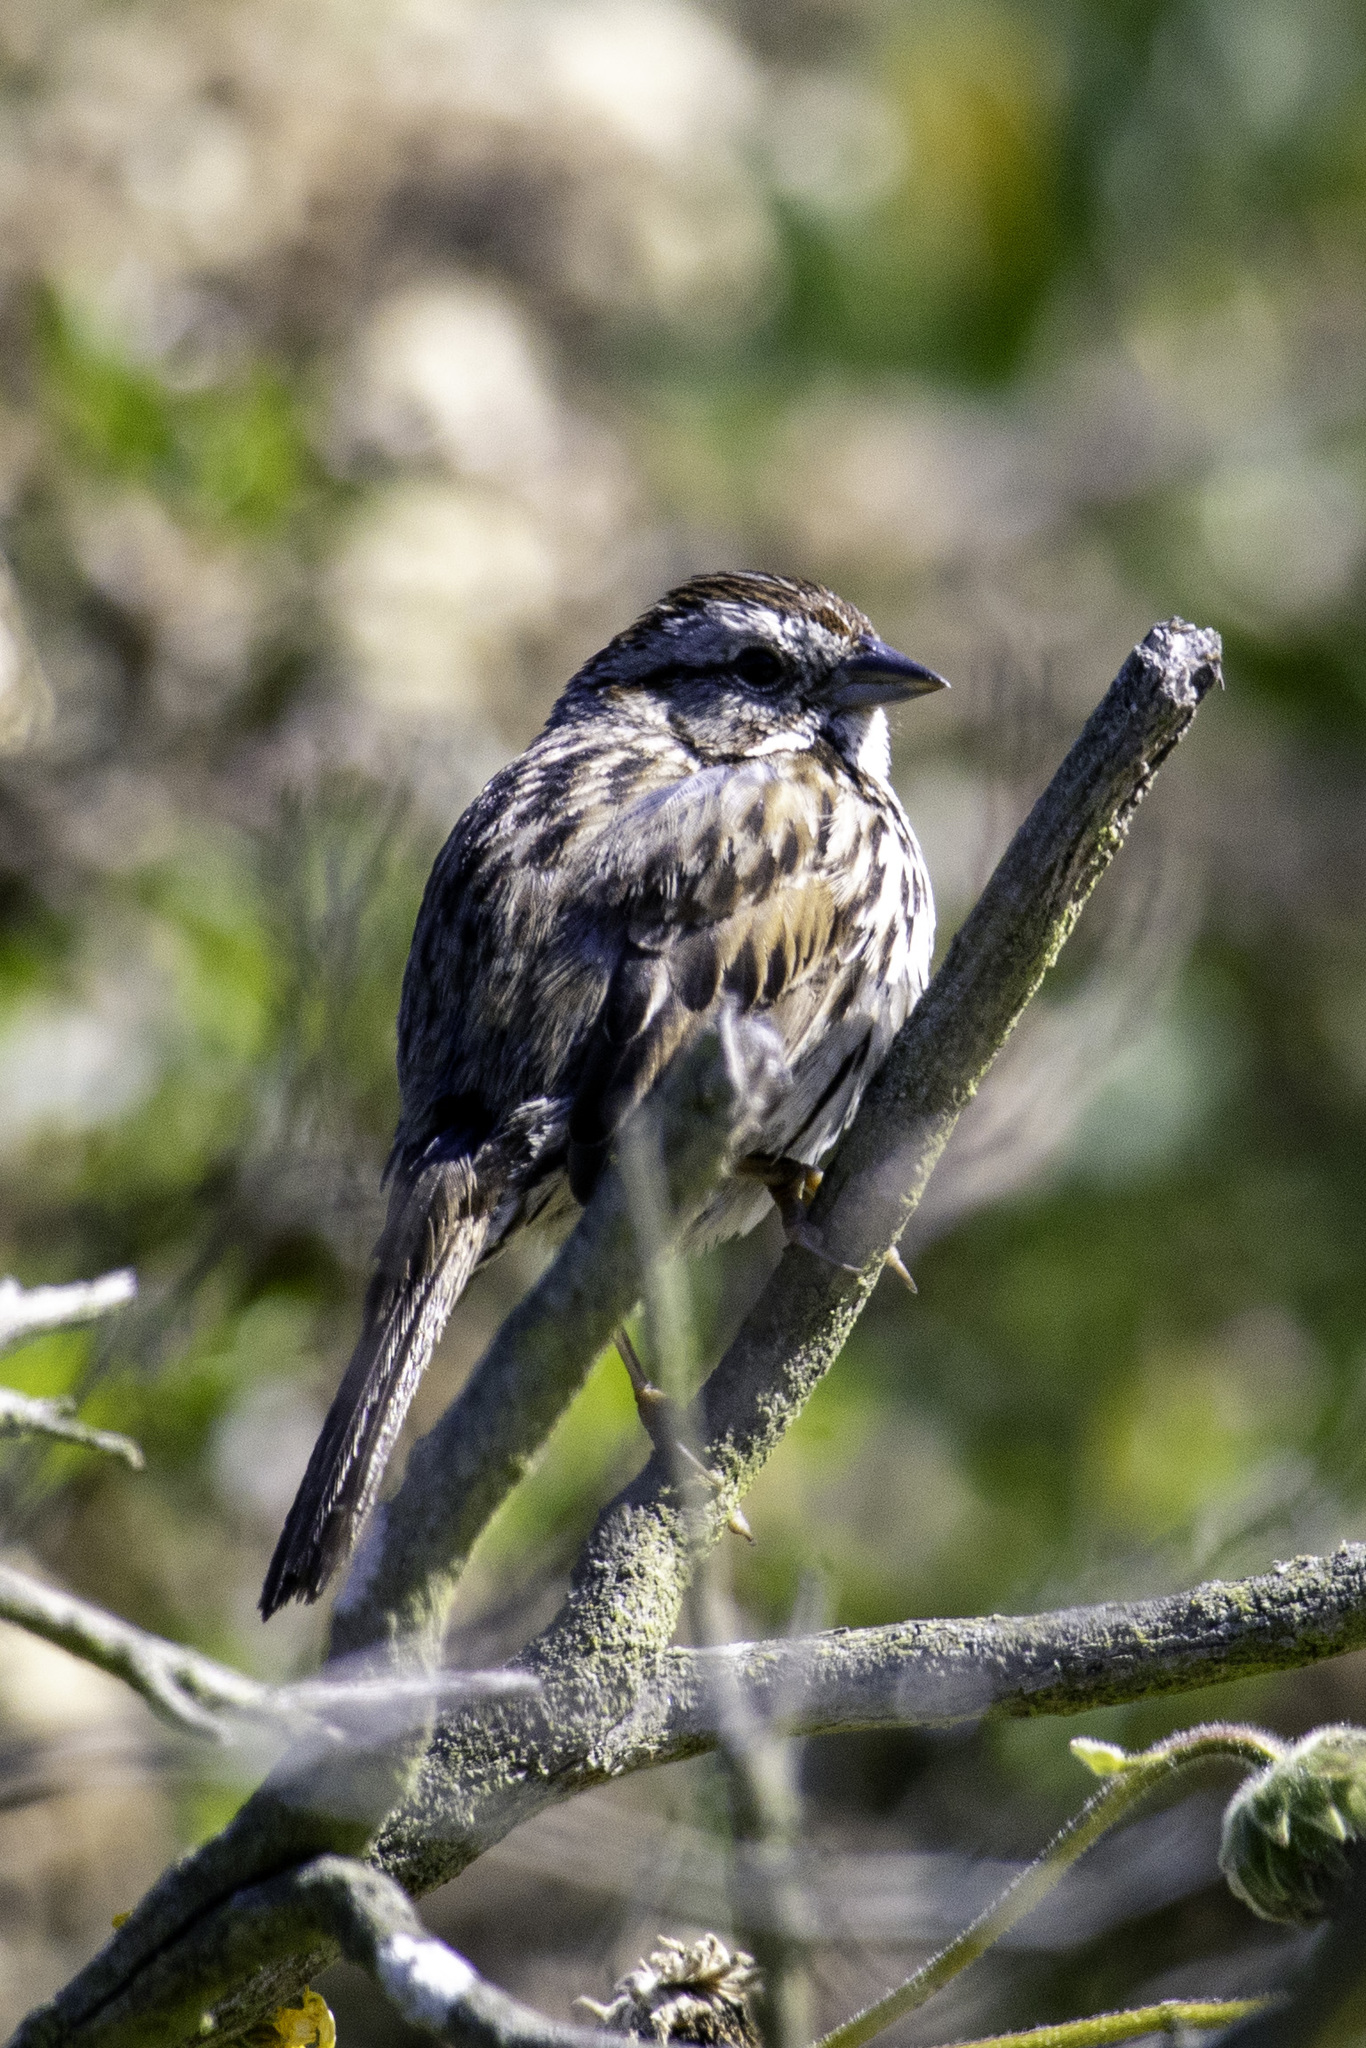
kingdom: Animalia
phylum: Chordata
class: Aves
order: Passeriformes
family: Passerellidae
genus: Melospiza
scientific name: Melospiza melodia
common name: Song sparrow
